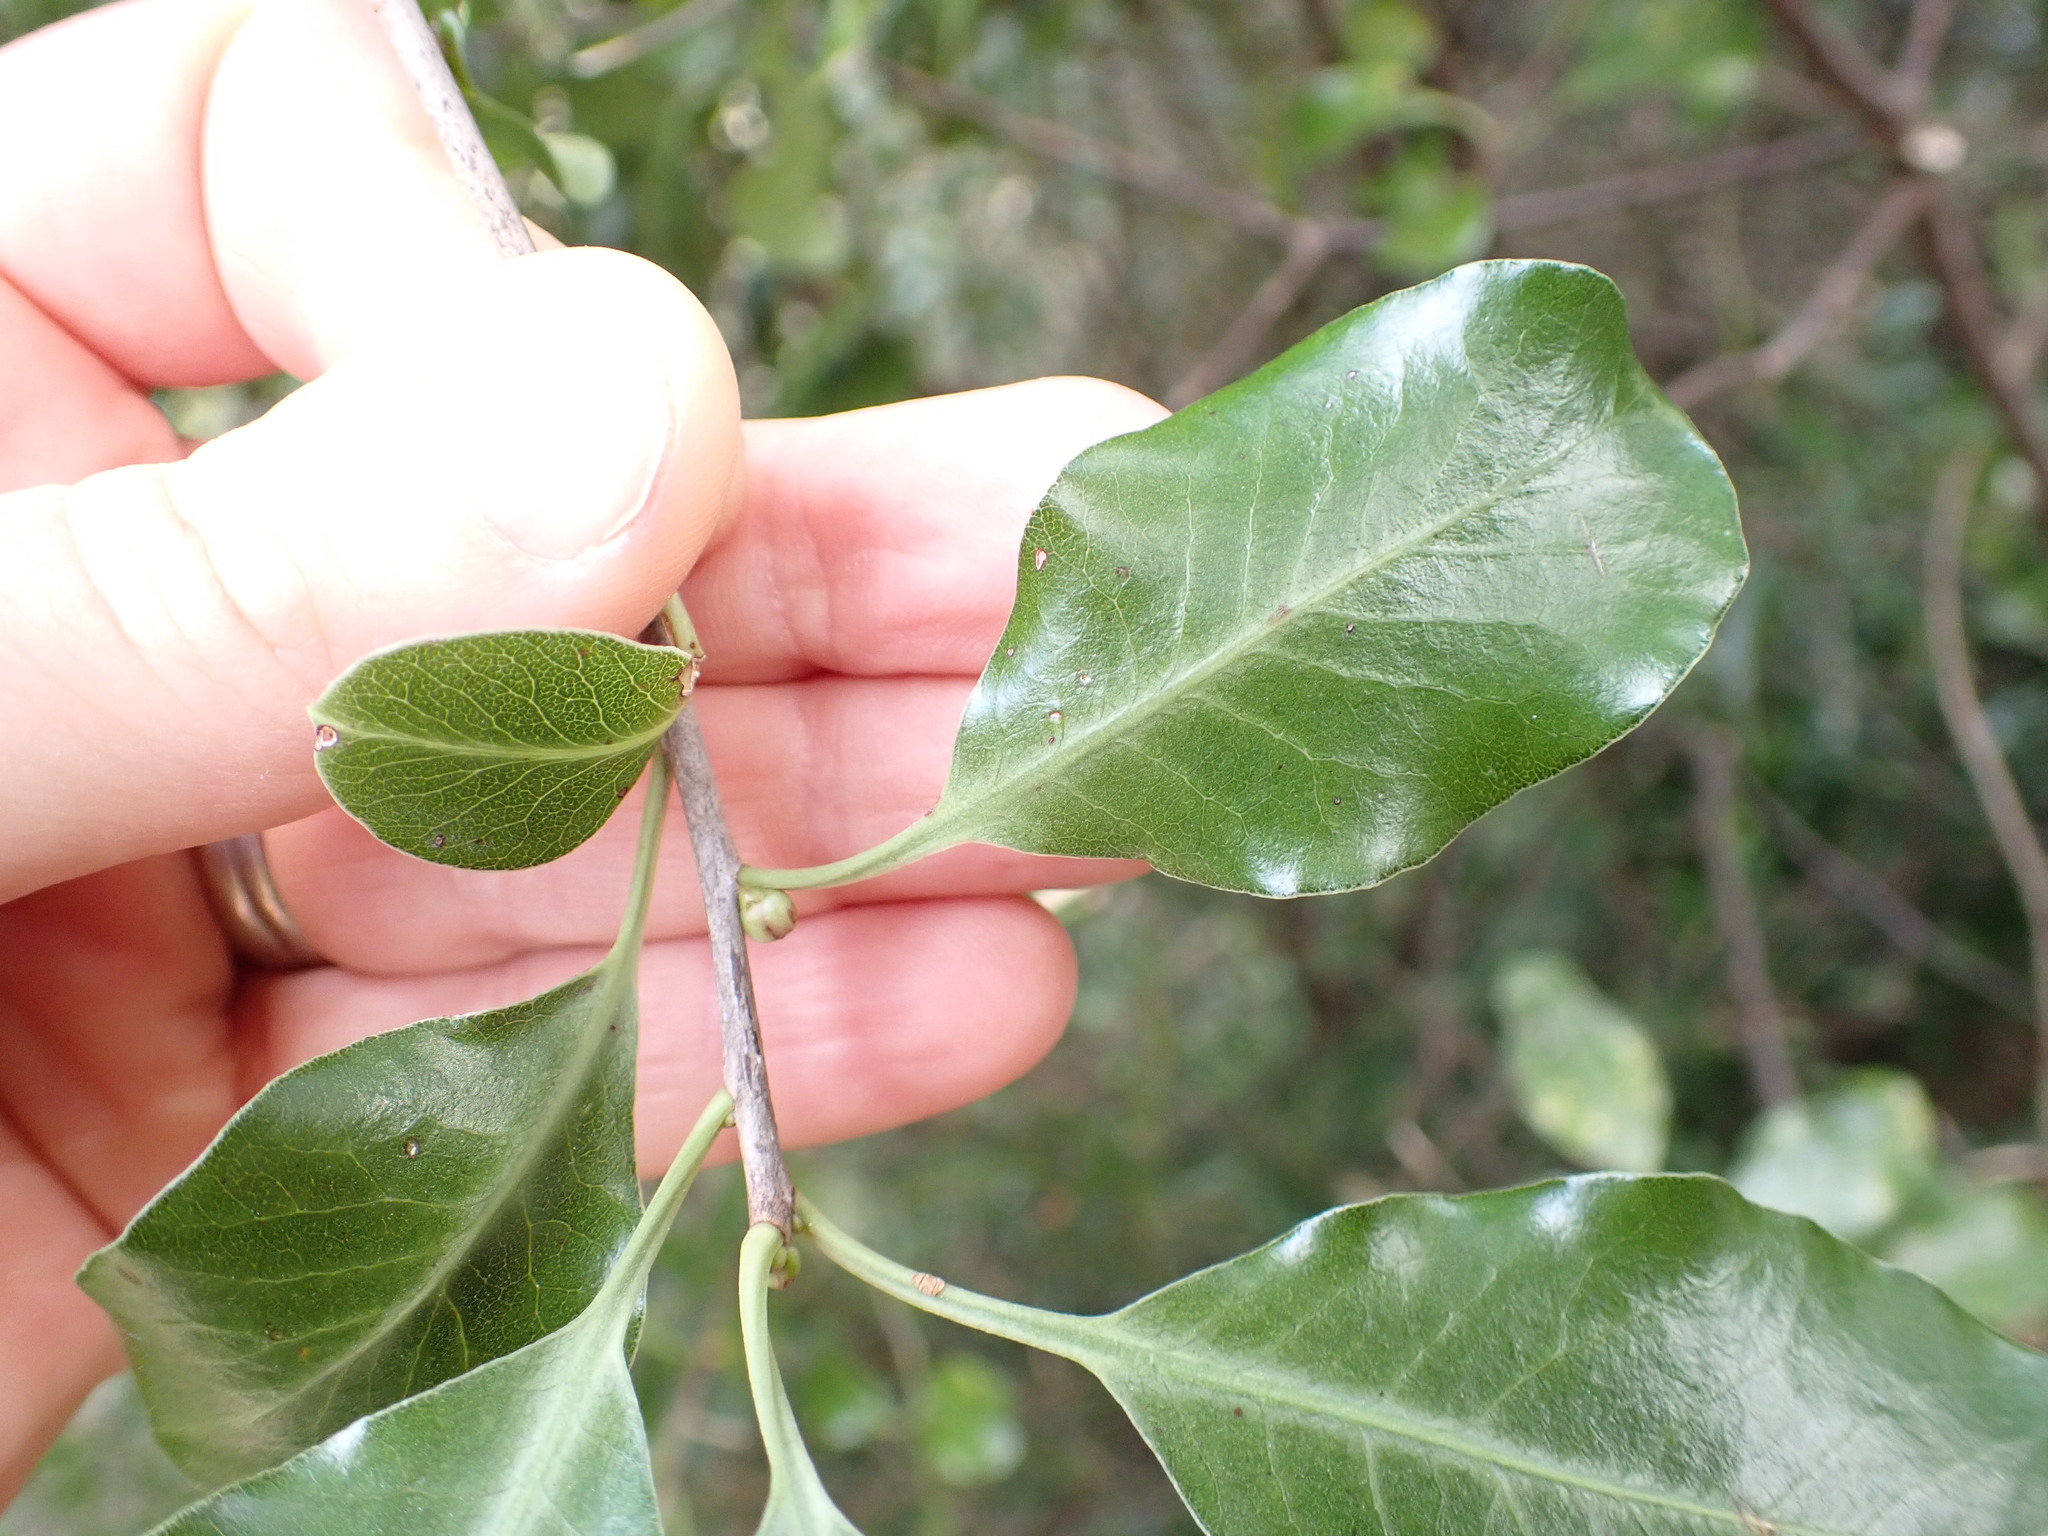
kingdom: Plantae
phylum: Tracheophyta
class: Magnoliopsida
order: Apiales
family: Pittosporaceae
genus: Pittosporum
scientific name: Pittosporum tenuifolium
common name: Kohuhu
